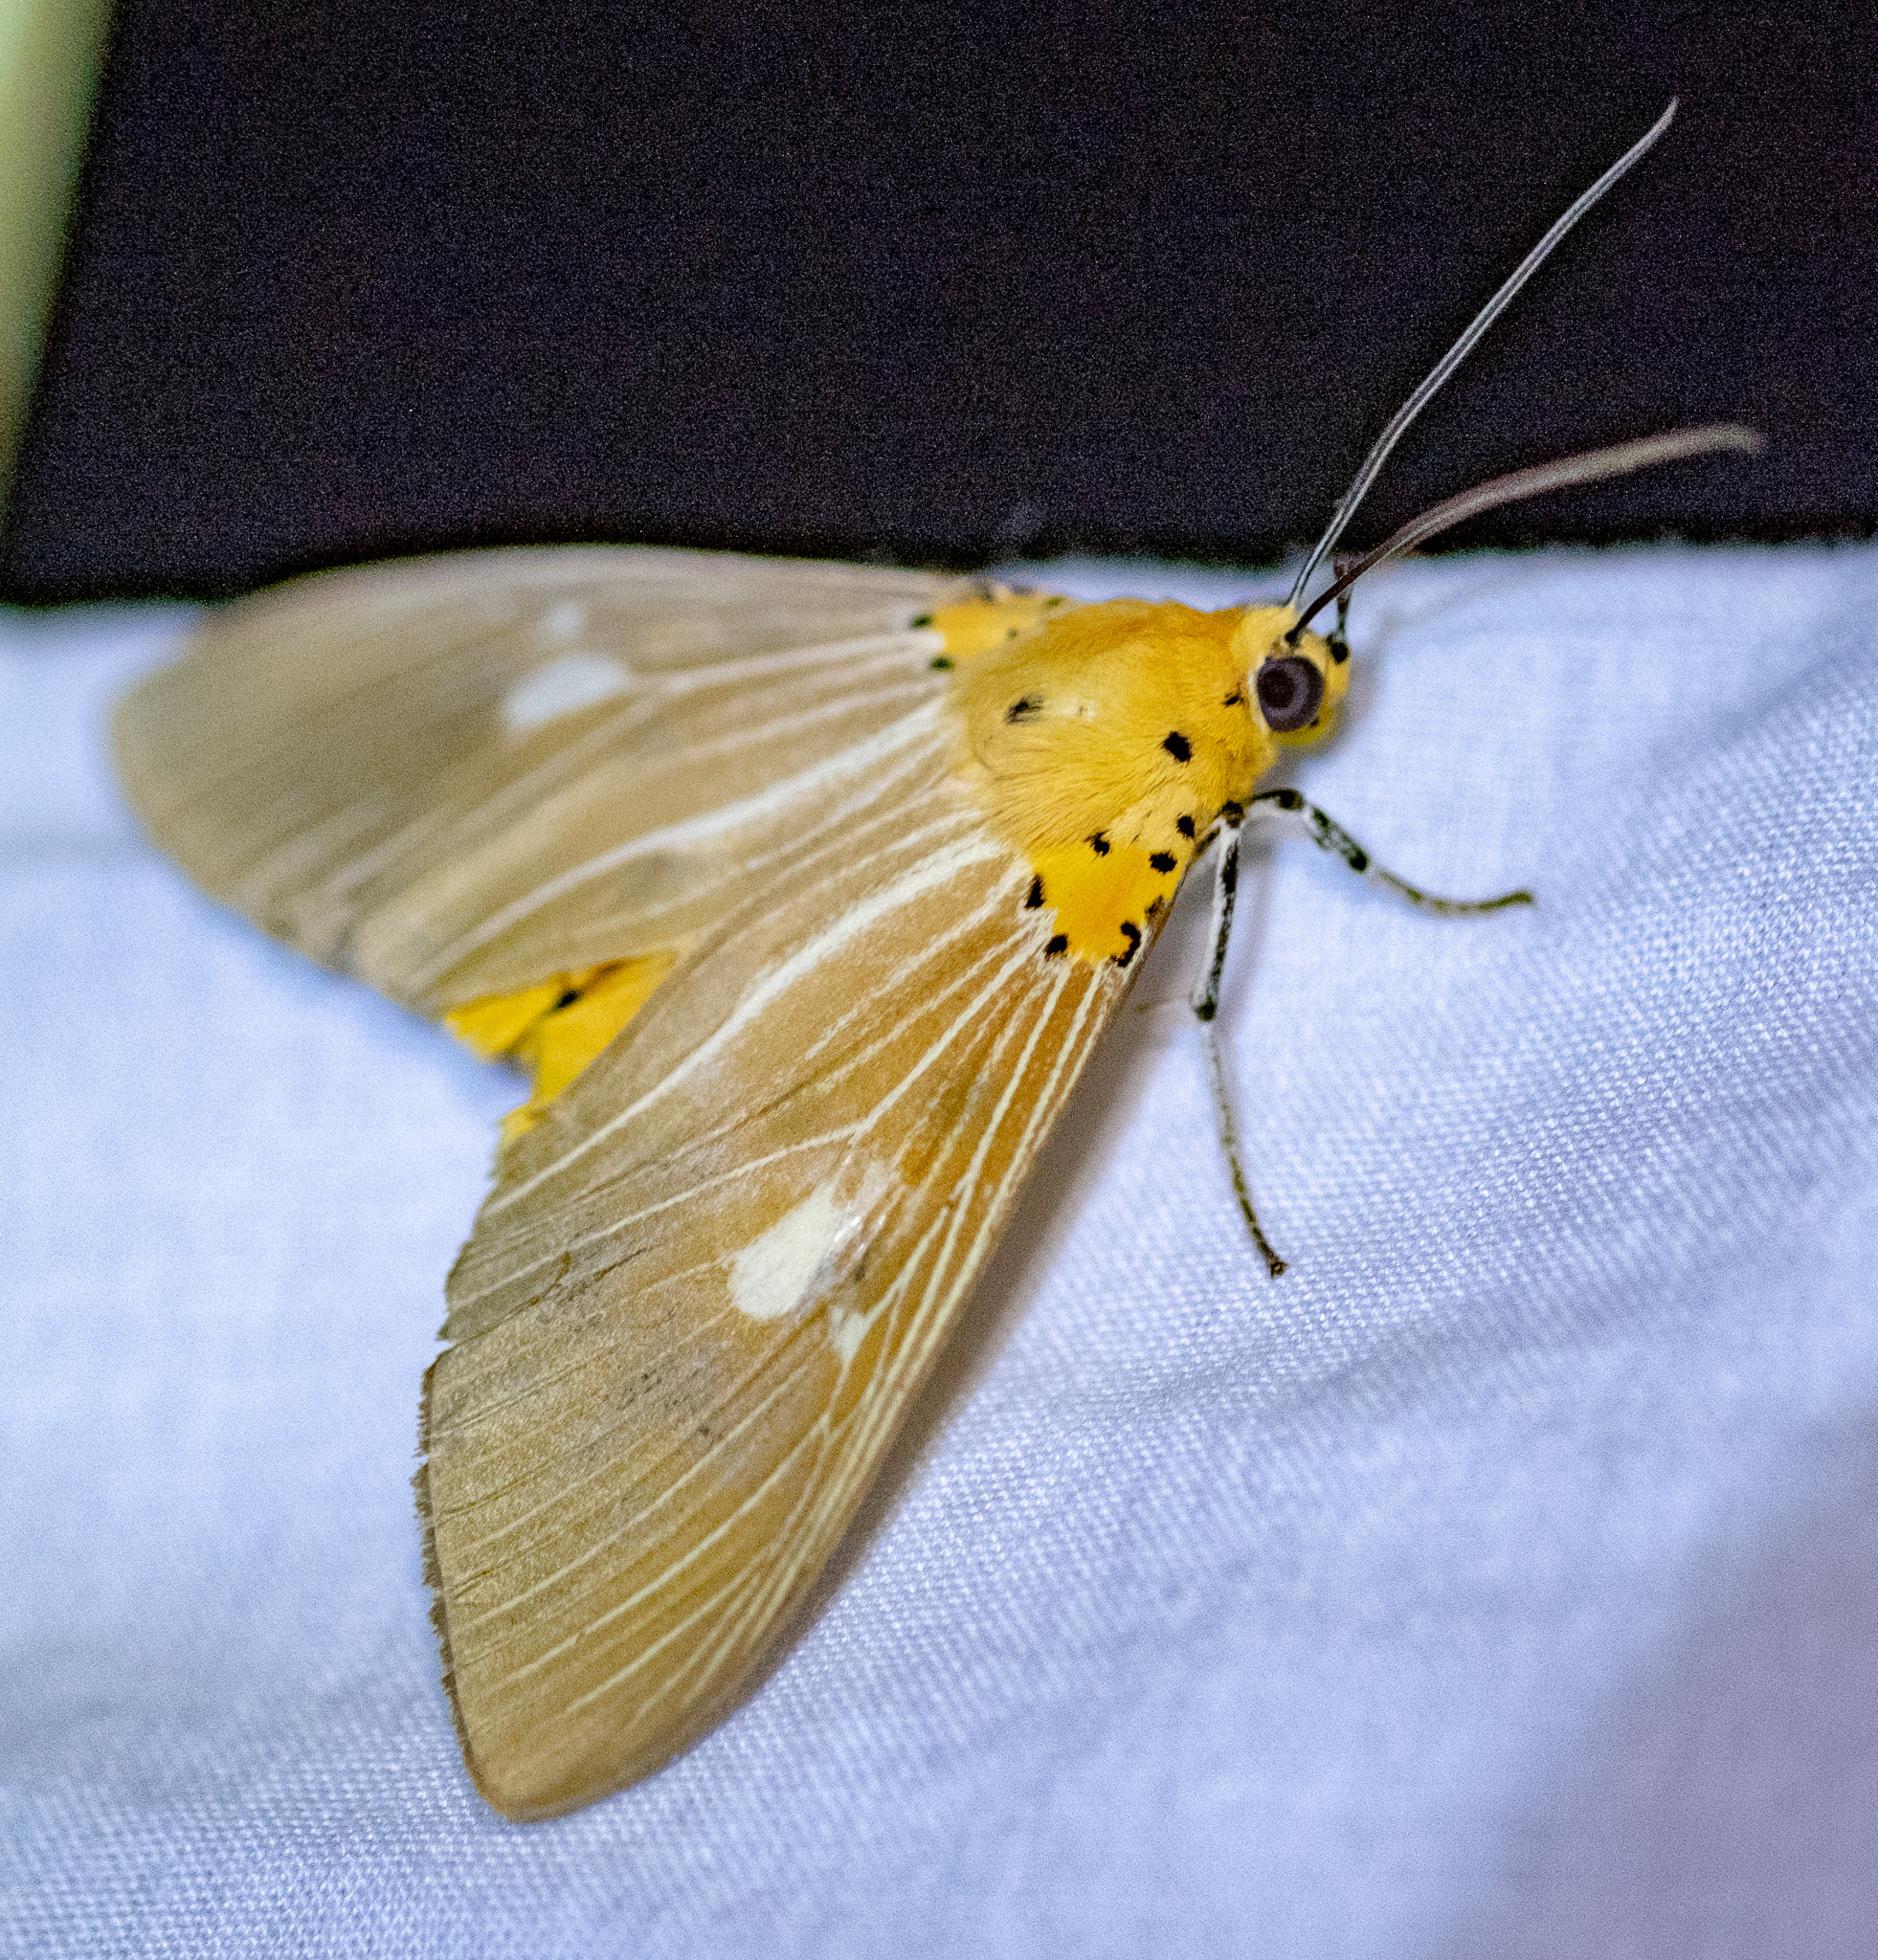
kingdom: Animalia
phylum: Arthropoda
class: Insecta
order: Lepidoptera
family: Erebidae
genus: Asota
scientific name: Asota plaginota
